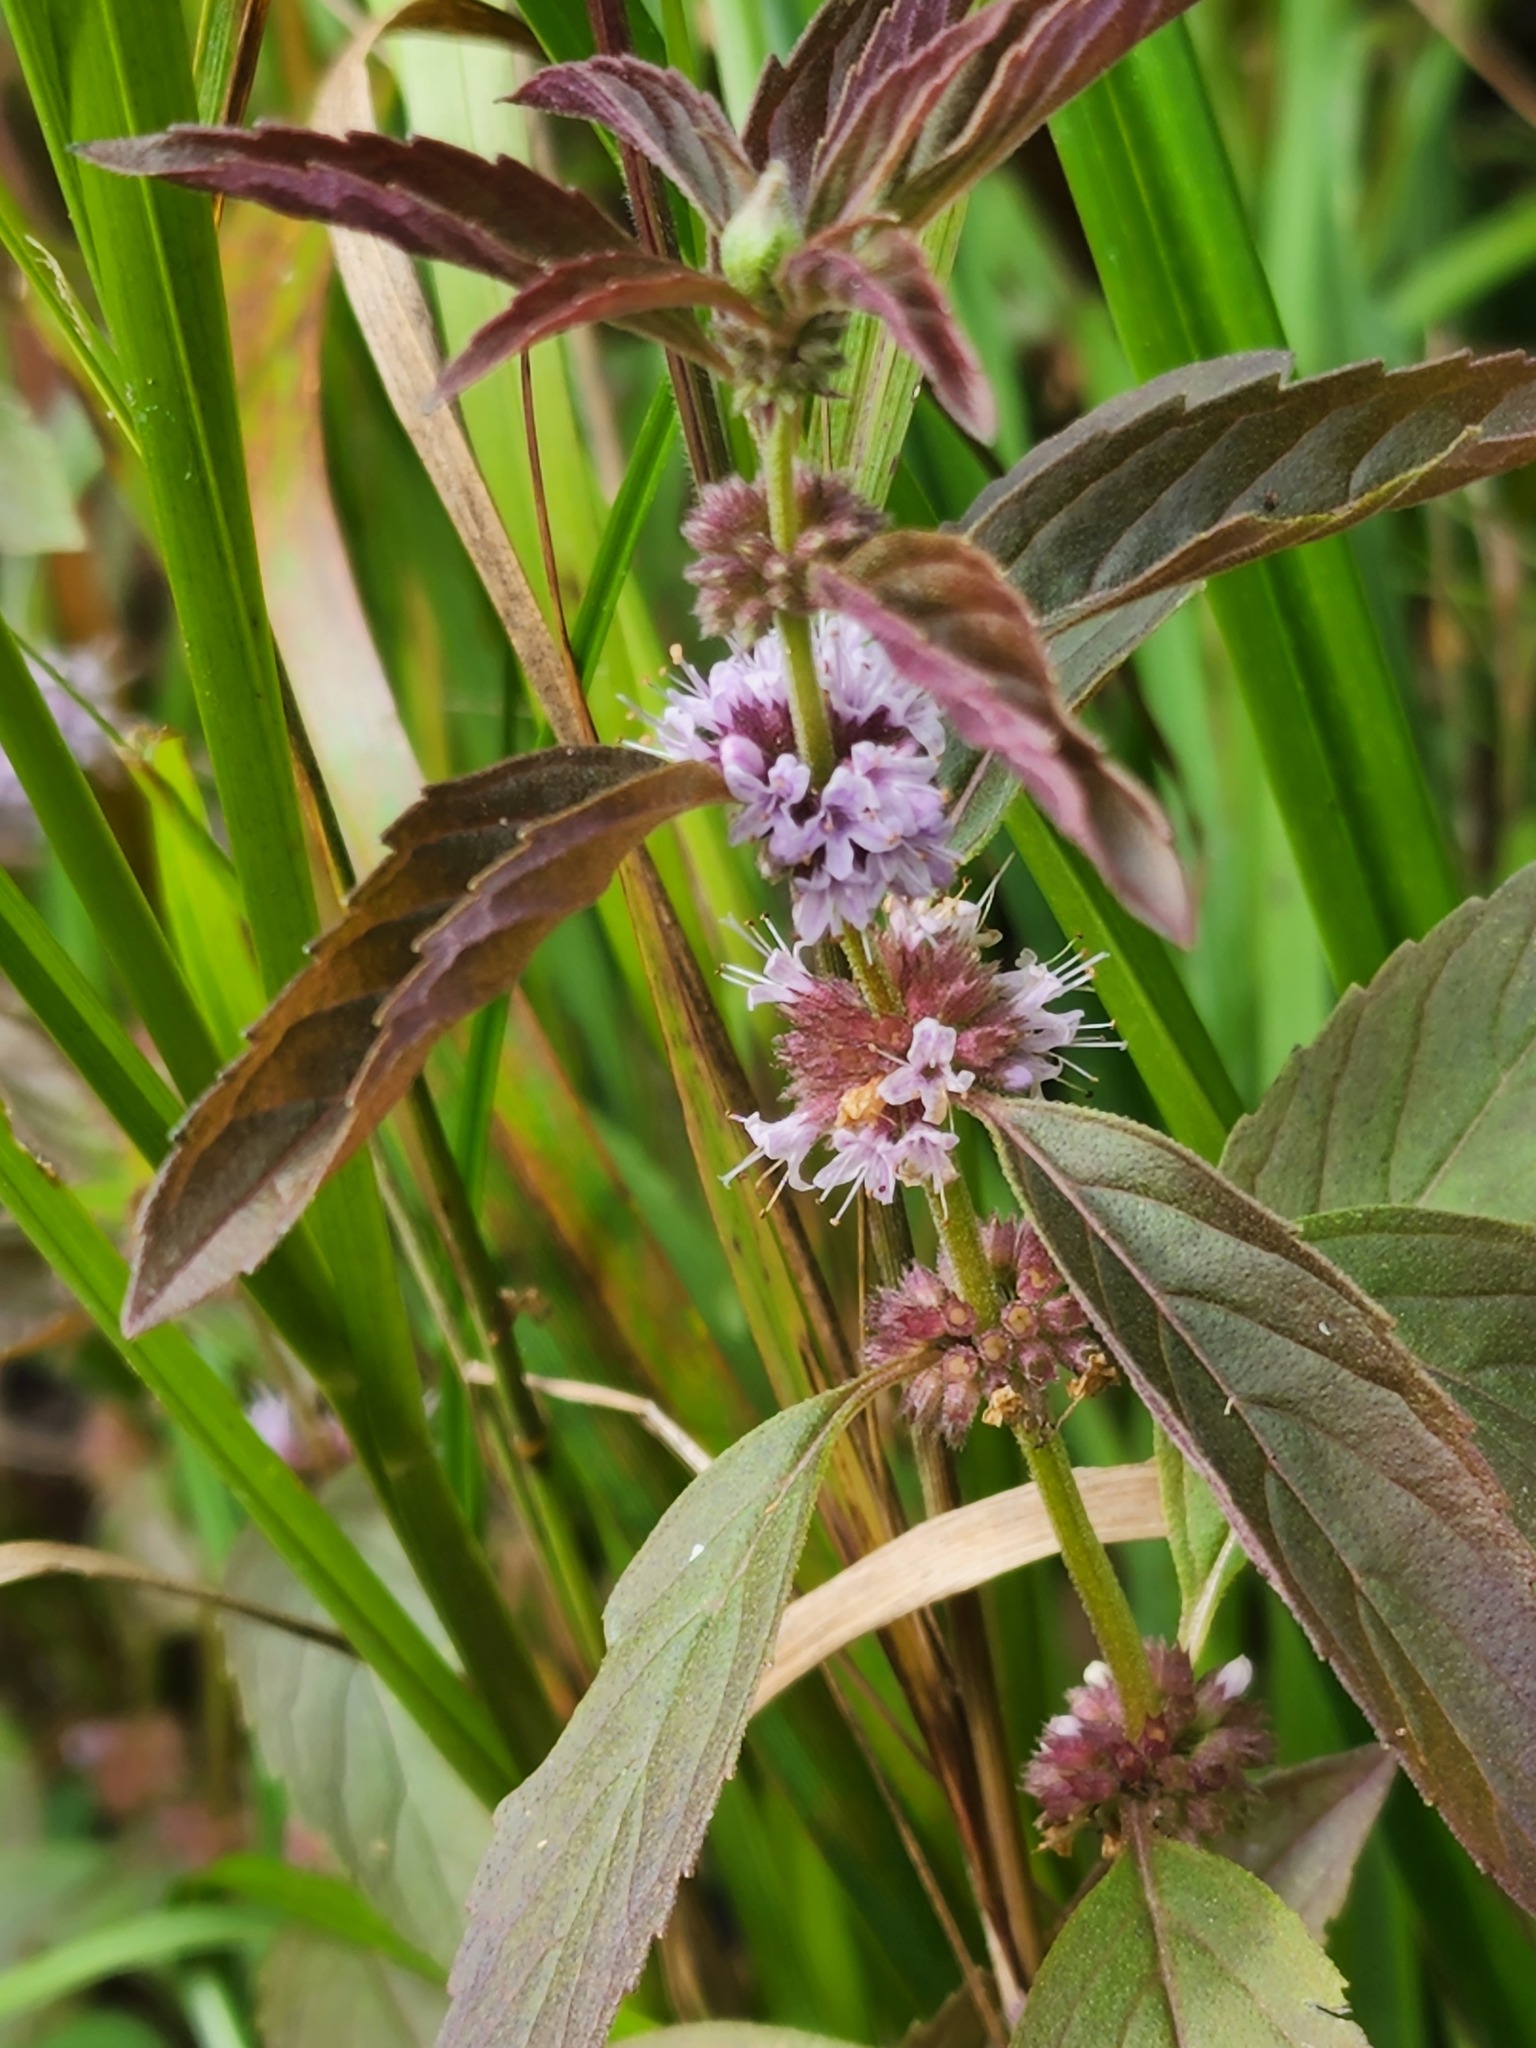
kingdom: Plantae
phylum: Tracheophyta
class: Magnoliopsida
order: Lamiales
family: Lamiaceae
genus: Mentha
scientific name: Mentha canadensis
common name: American corn mint
